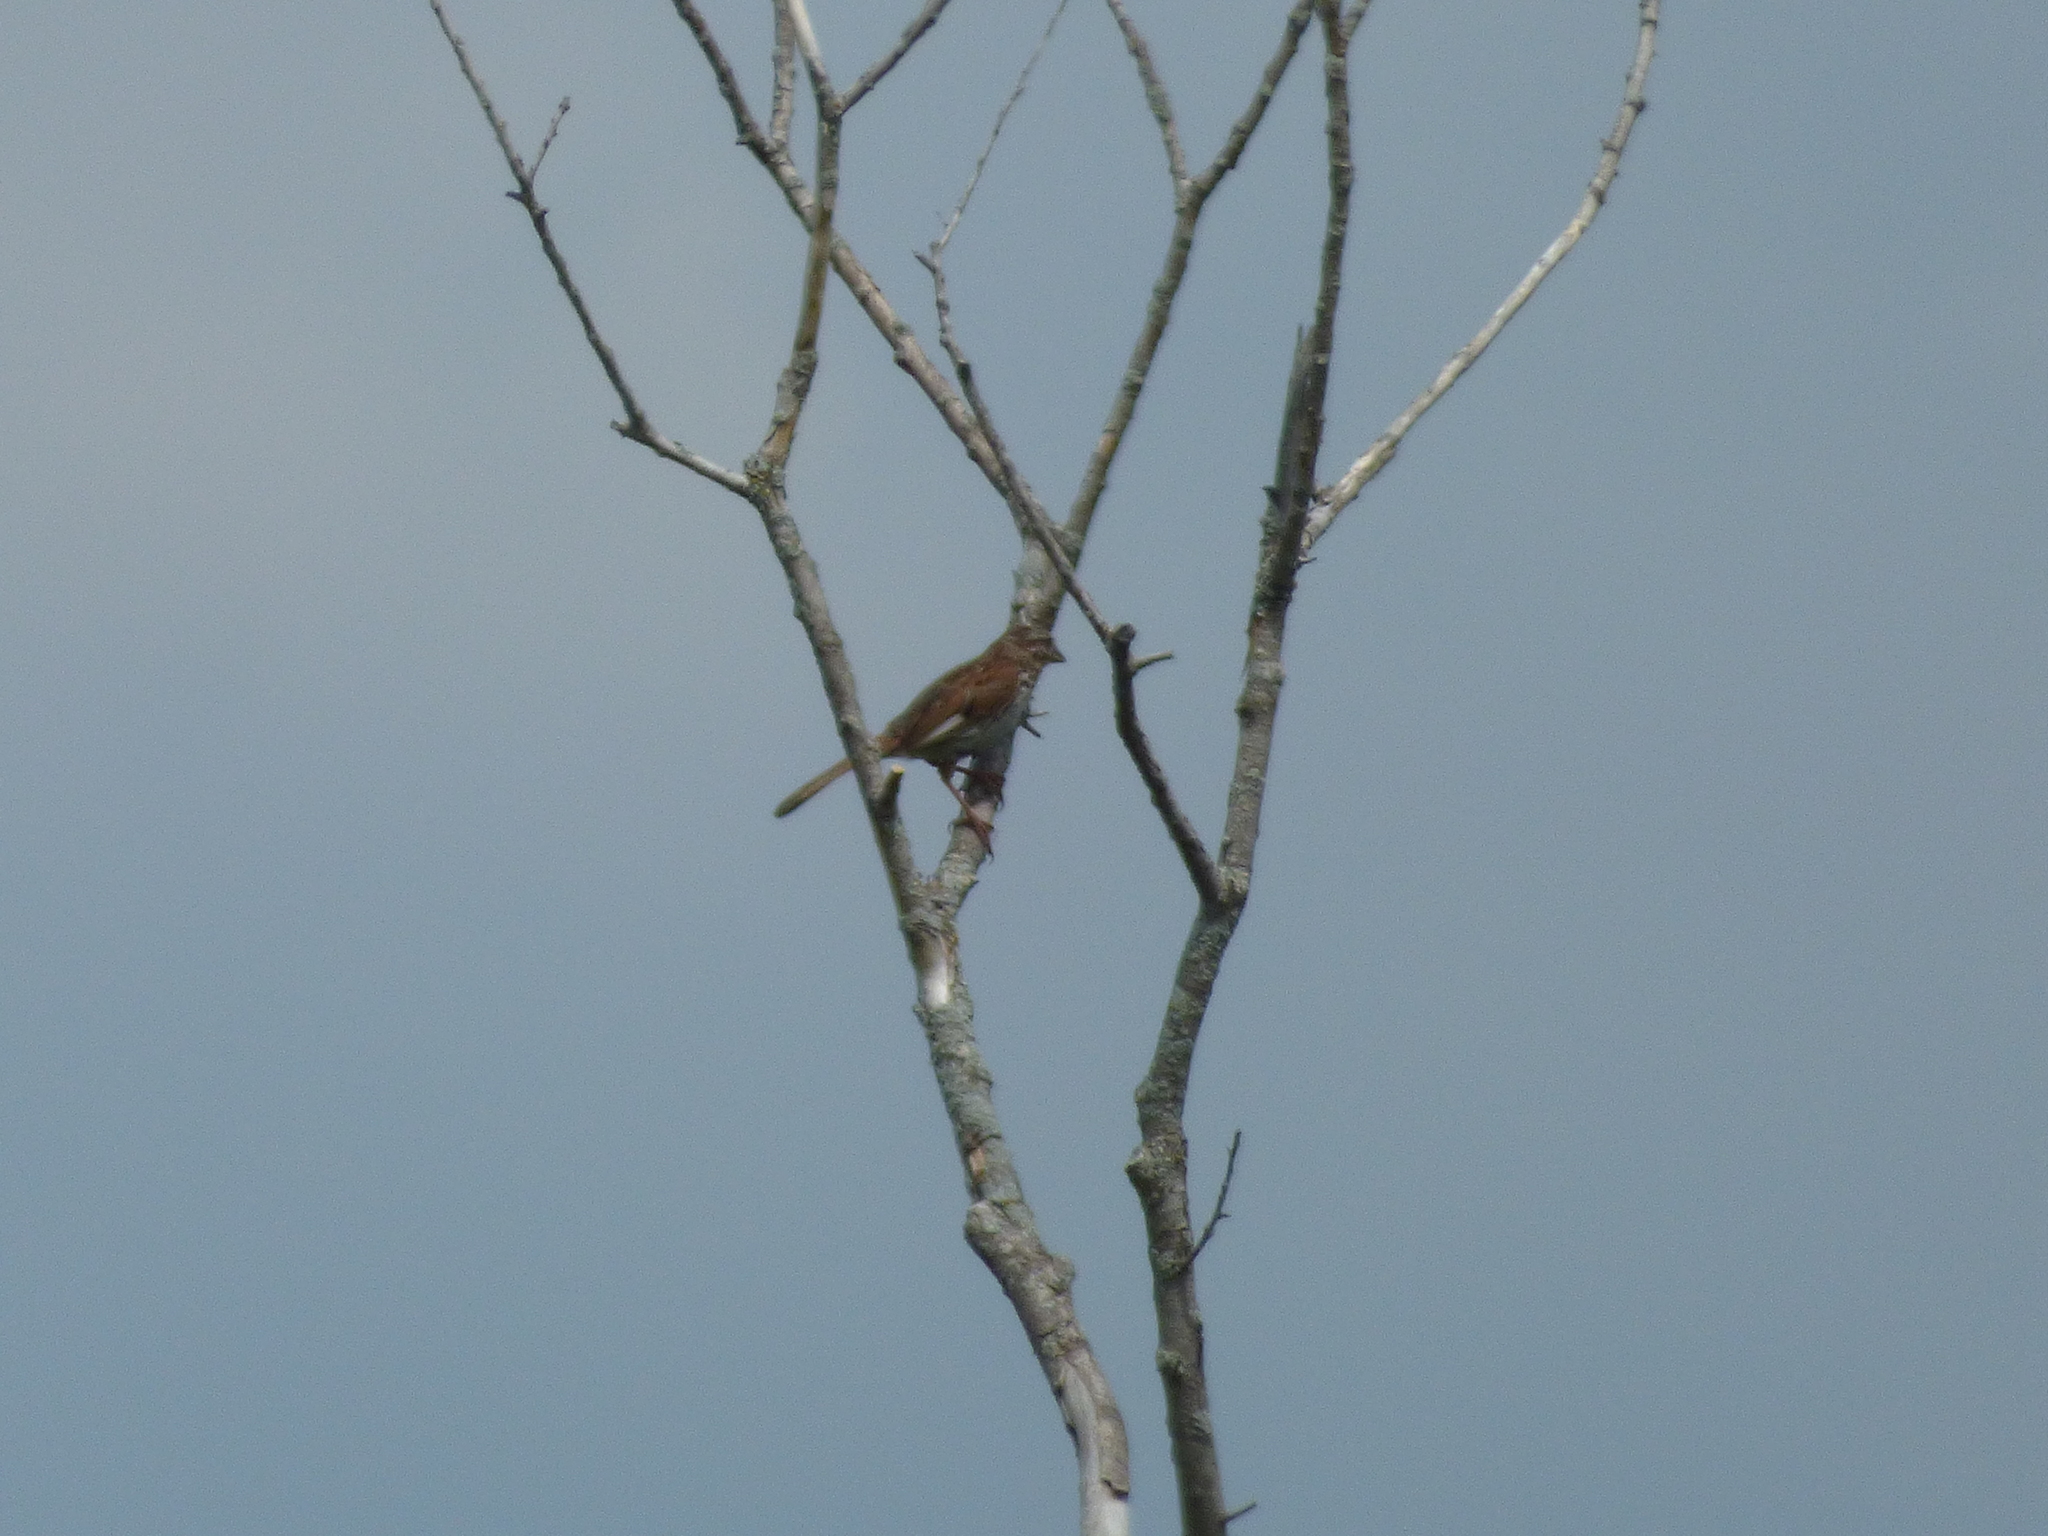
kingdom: Animalia
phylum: Chordata
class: Aves
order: Passeriformes
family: Passerellidae
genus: Melospiza
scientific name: Melospiza melodia
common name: Song sparrow
